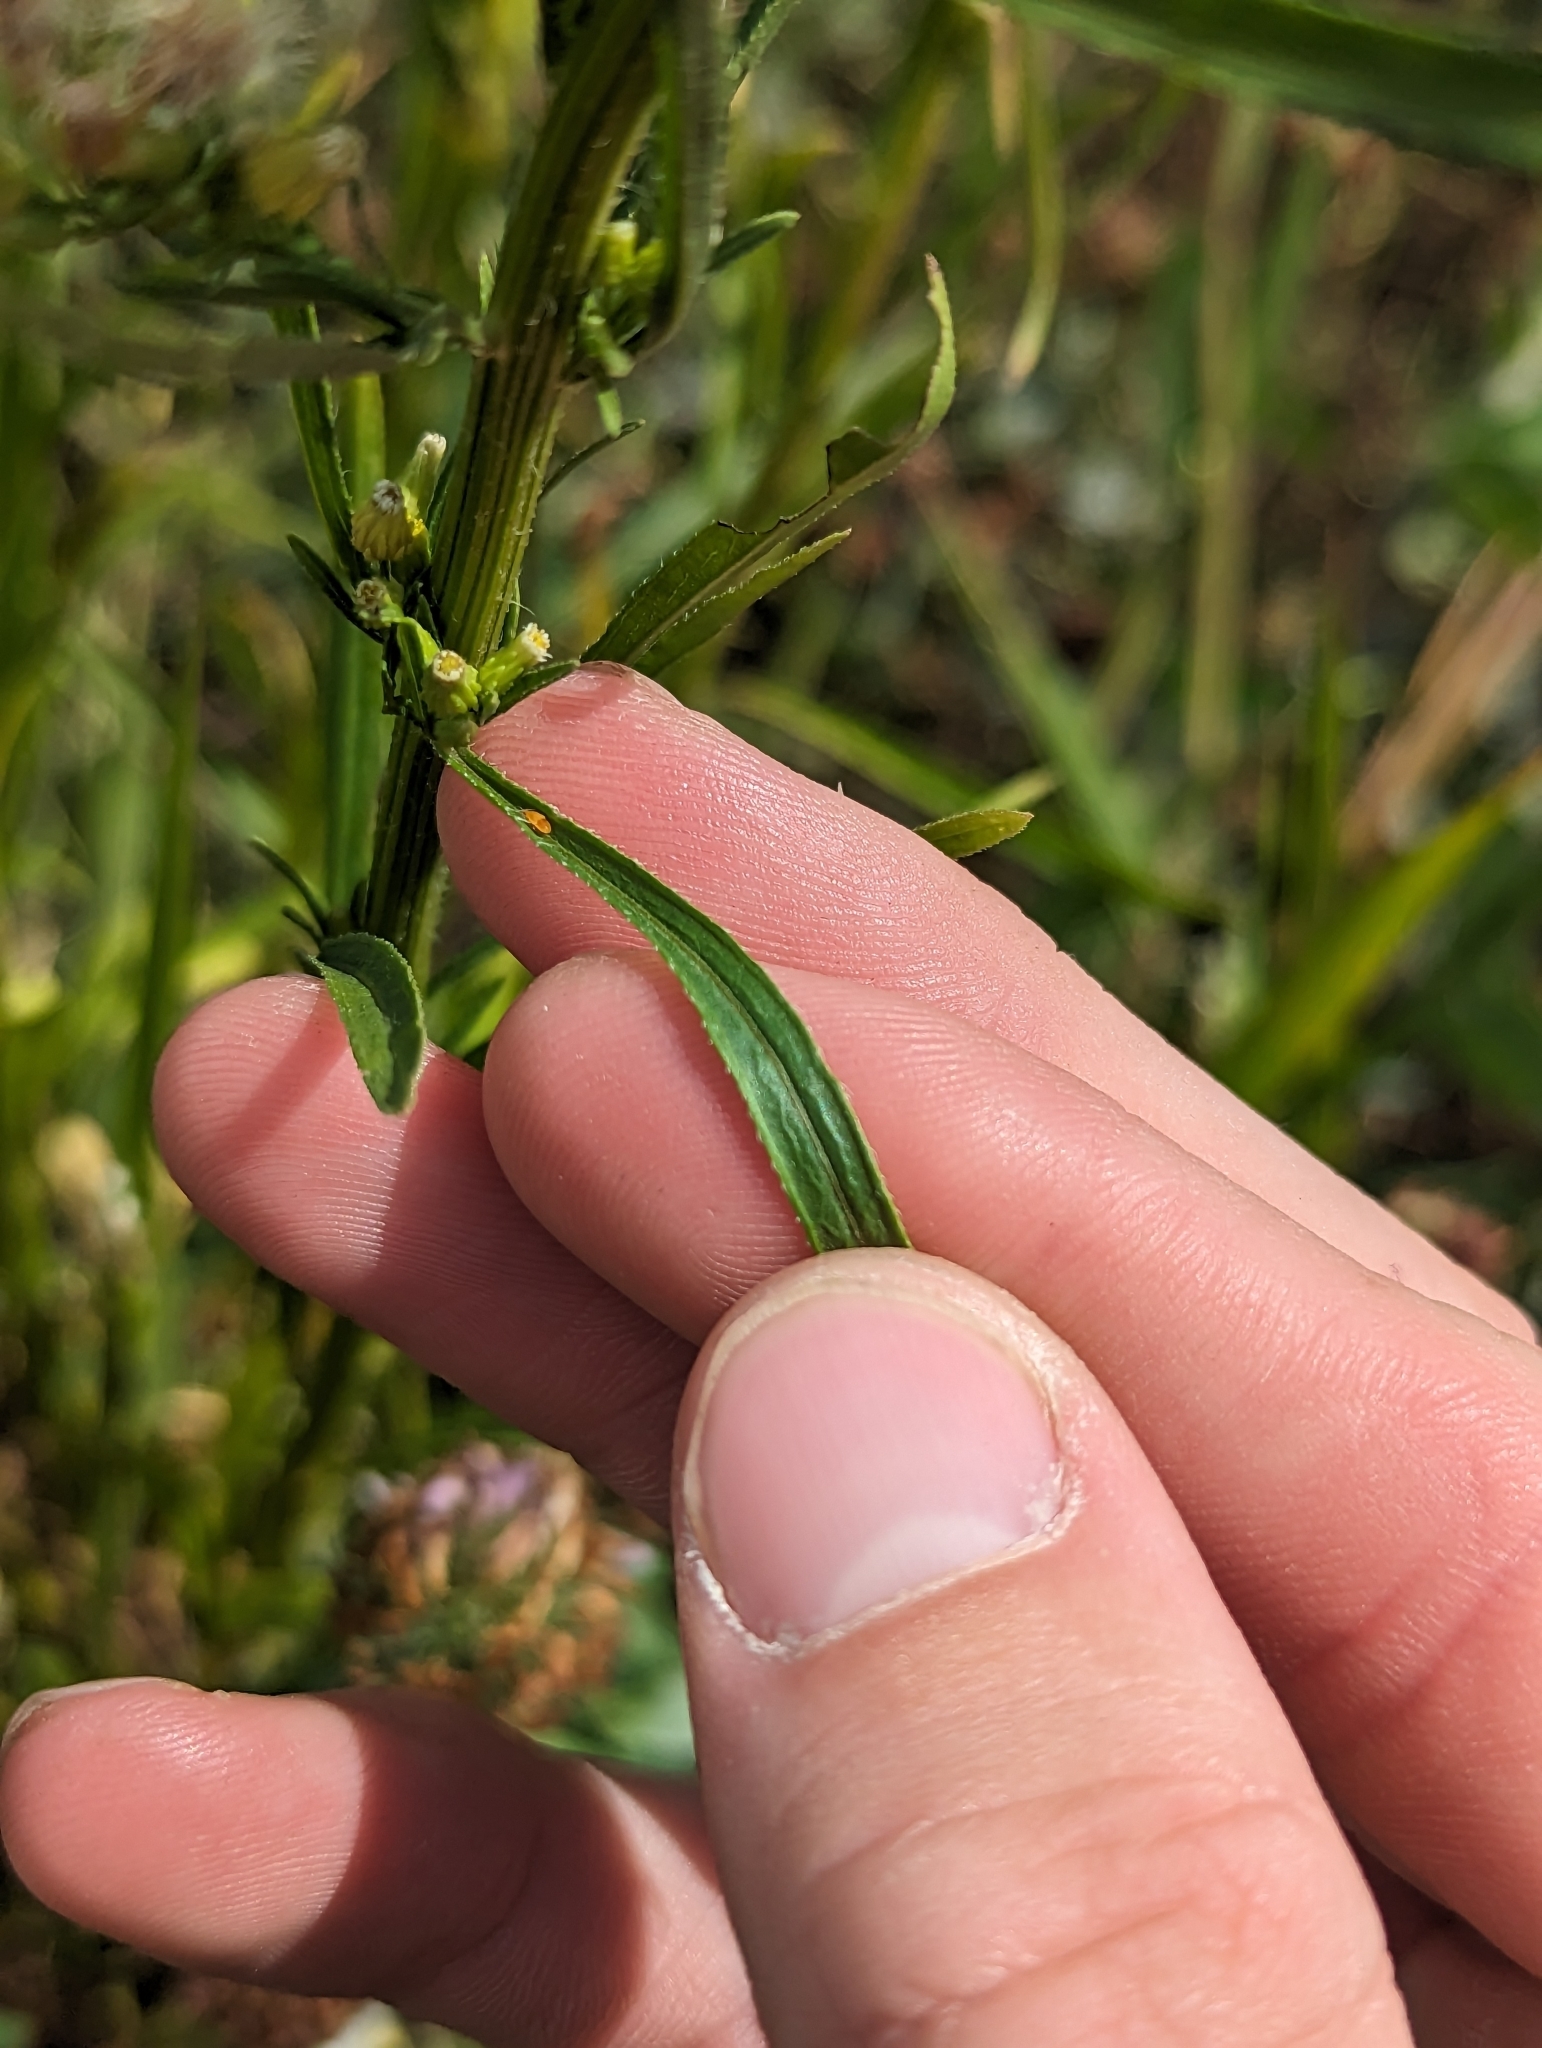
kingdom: Plantae
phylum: Tracheophyta
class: Magnoliopsida
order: Asterales
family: Asteraceae
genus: Erigeron
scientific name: Erigeron canadensis
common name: Canadian fleabane
